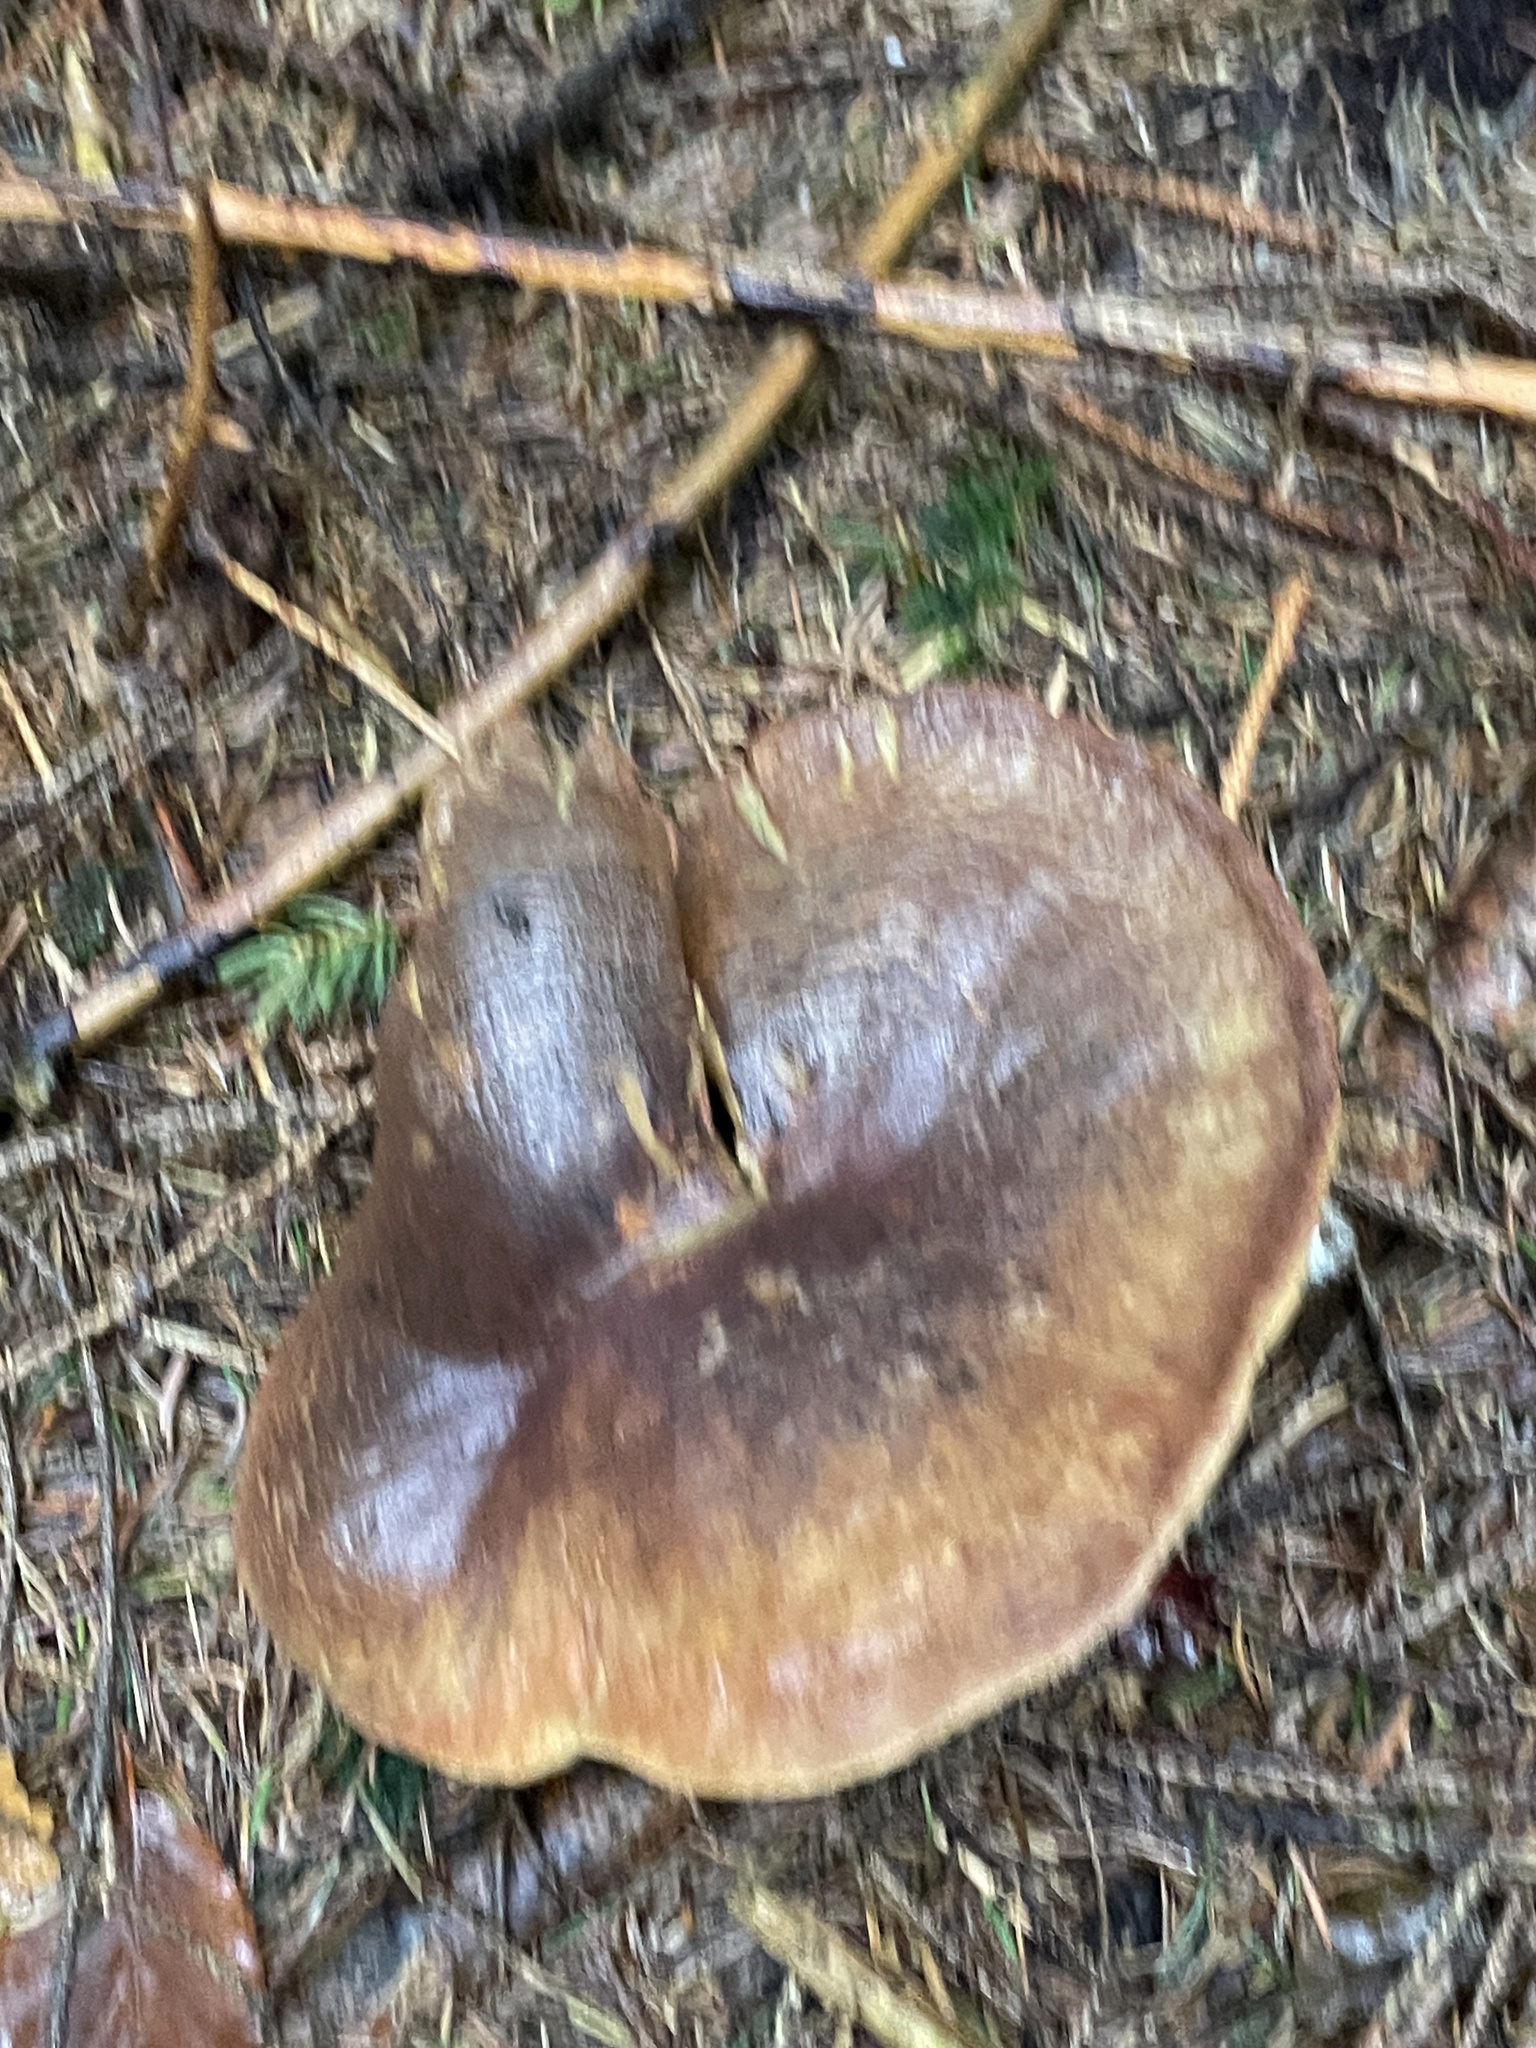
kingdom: Fungi
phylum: Basidiomycota
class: Agaricomycetes
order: Boletales
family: Tapinellaceae
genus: Tapinella
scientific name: Tapinella atrotomentosa
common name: Velvet rollrim
